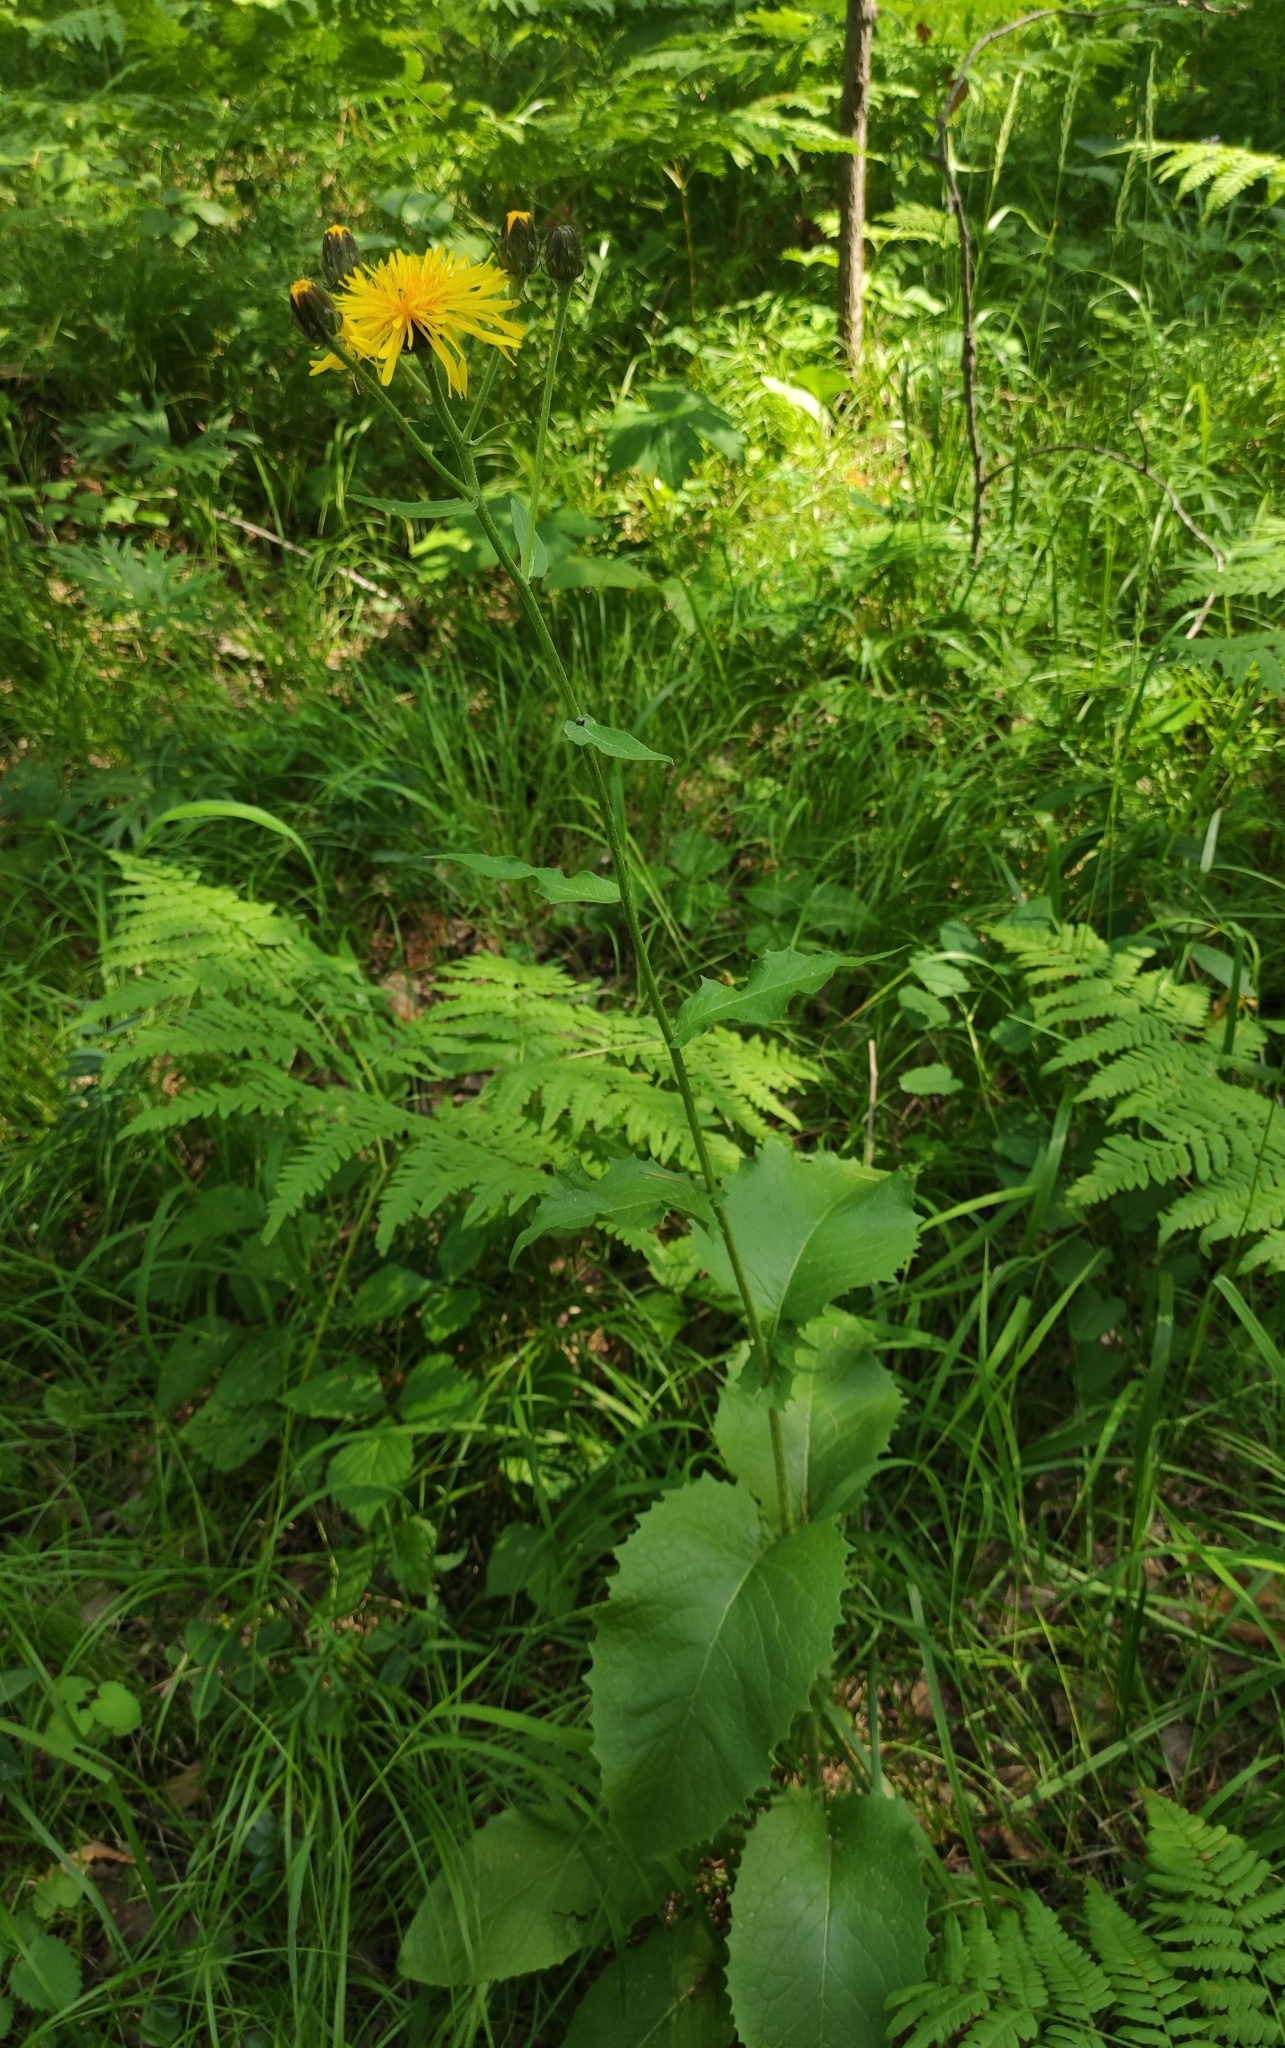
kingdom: Plantae
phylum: Tracheophyta
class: Magnoliopsida
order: Asterales
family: Asteraceae
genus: Crepis
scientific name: Crepis sibirica
